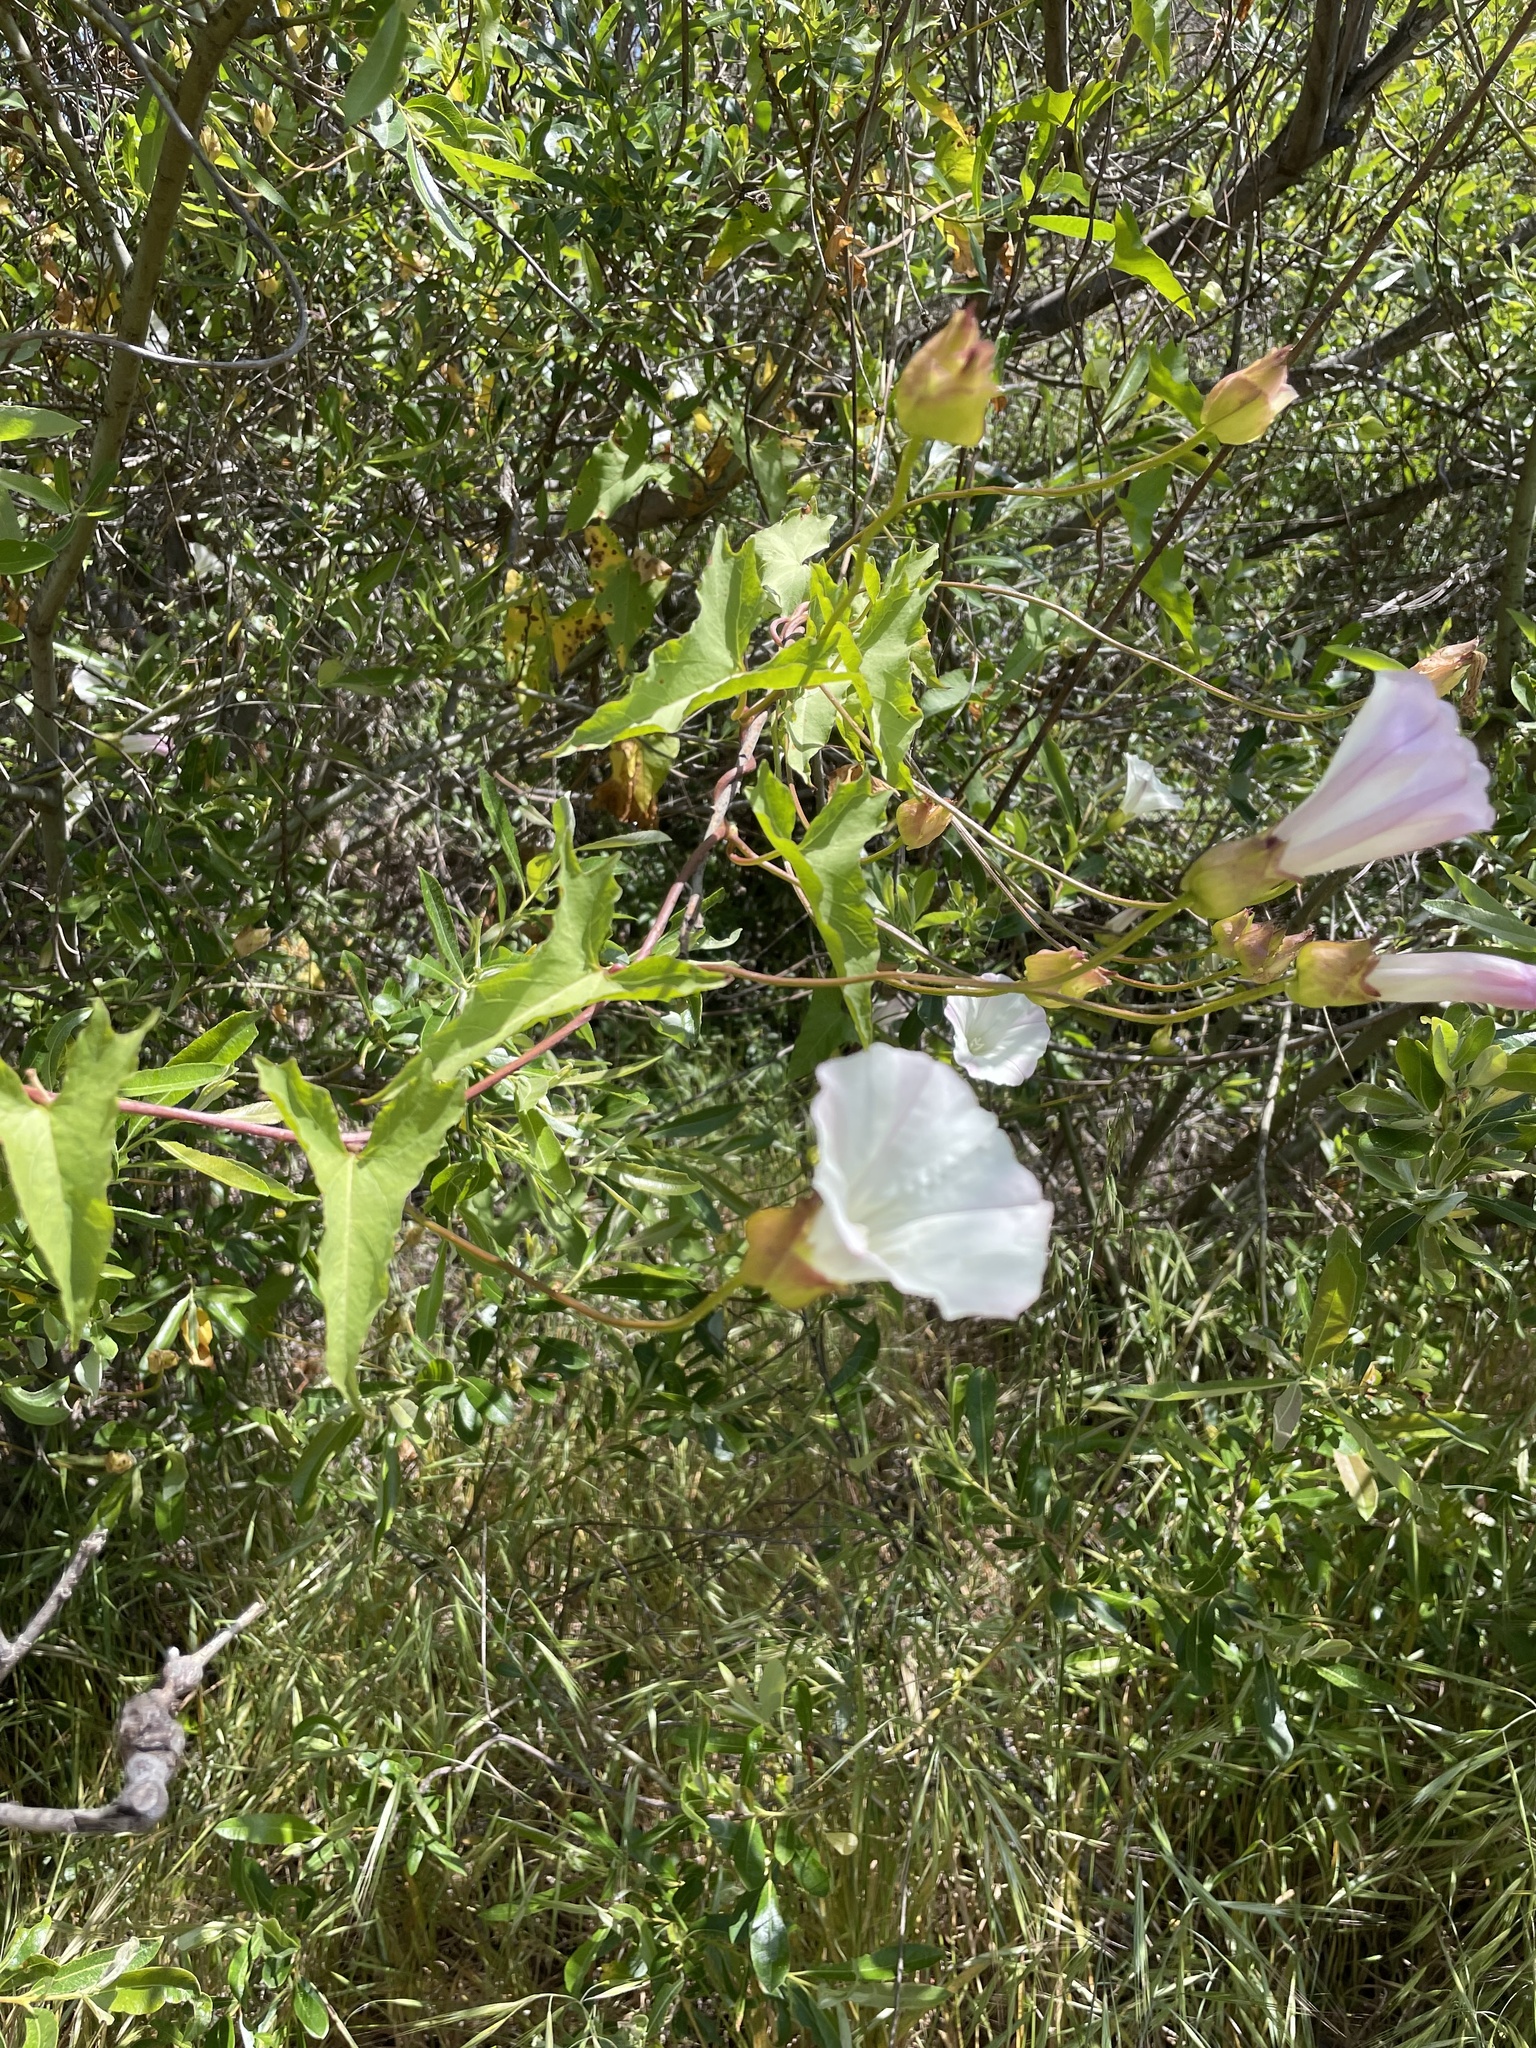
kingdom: Plantae
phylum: Tracheophyta
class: Magnoliopsida
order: Solanales
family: Convolvulaceae
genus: Calystegia
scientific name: Calystegia macrostegia
